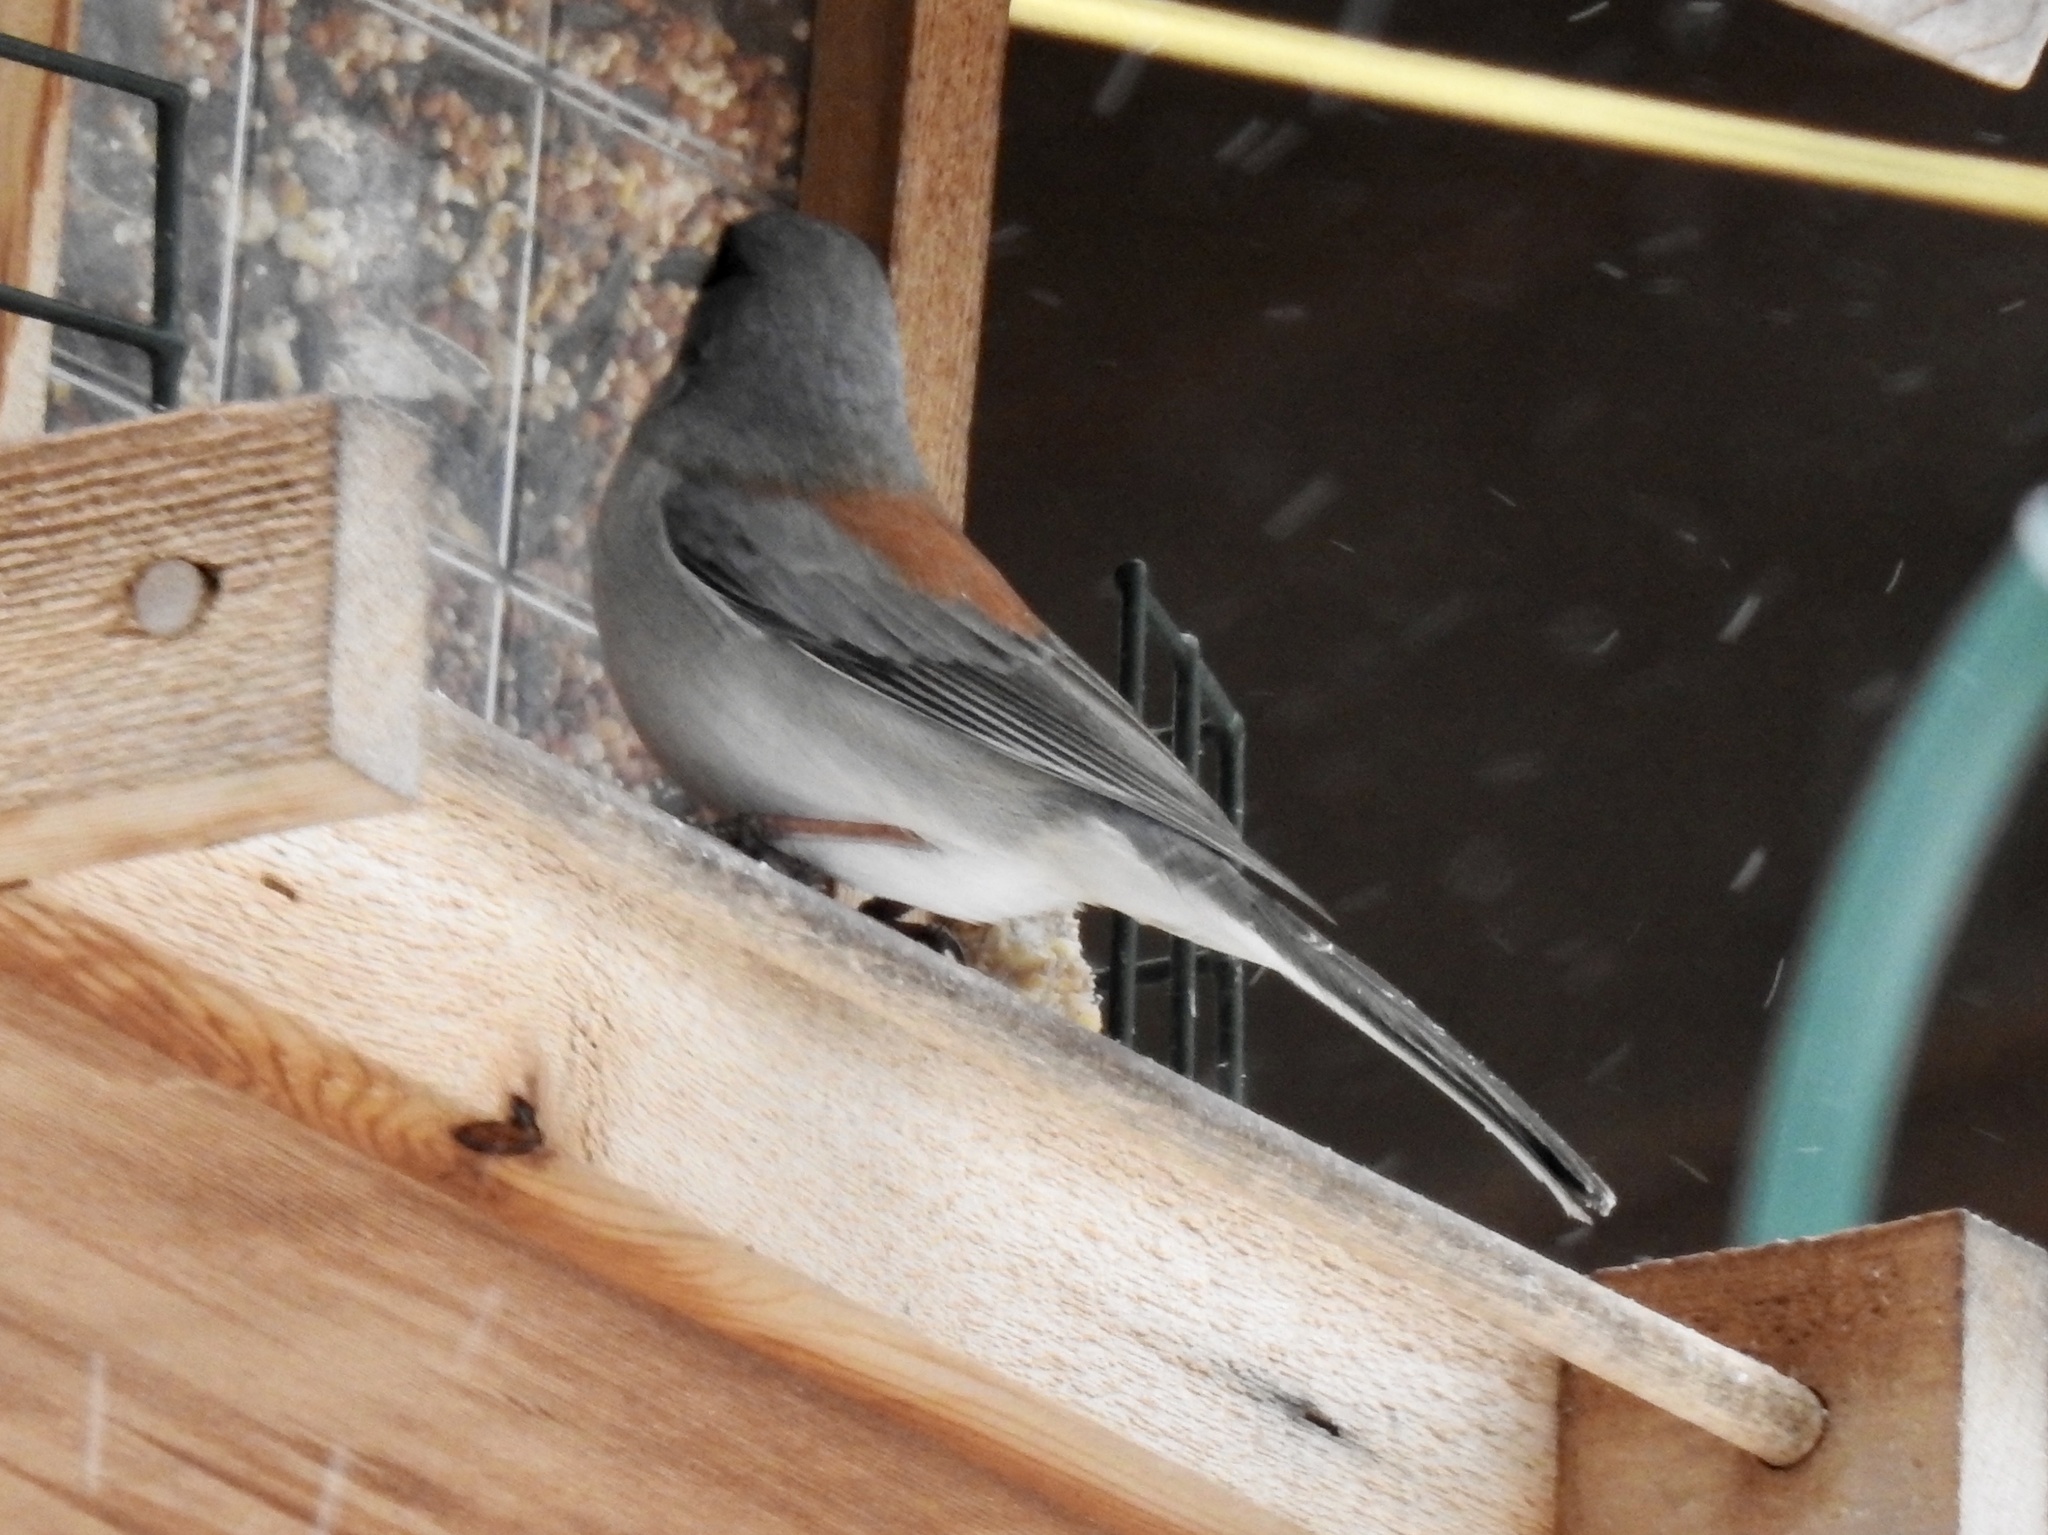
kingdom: Animalia
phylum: Chordata
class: Aves
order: Passeriformes
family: Passerellidae
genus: Junco
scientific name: Junco hyemalis
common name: Dark-eyed junco
